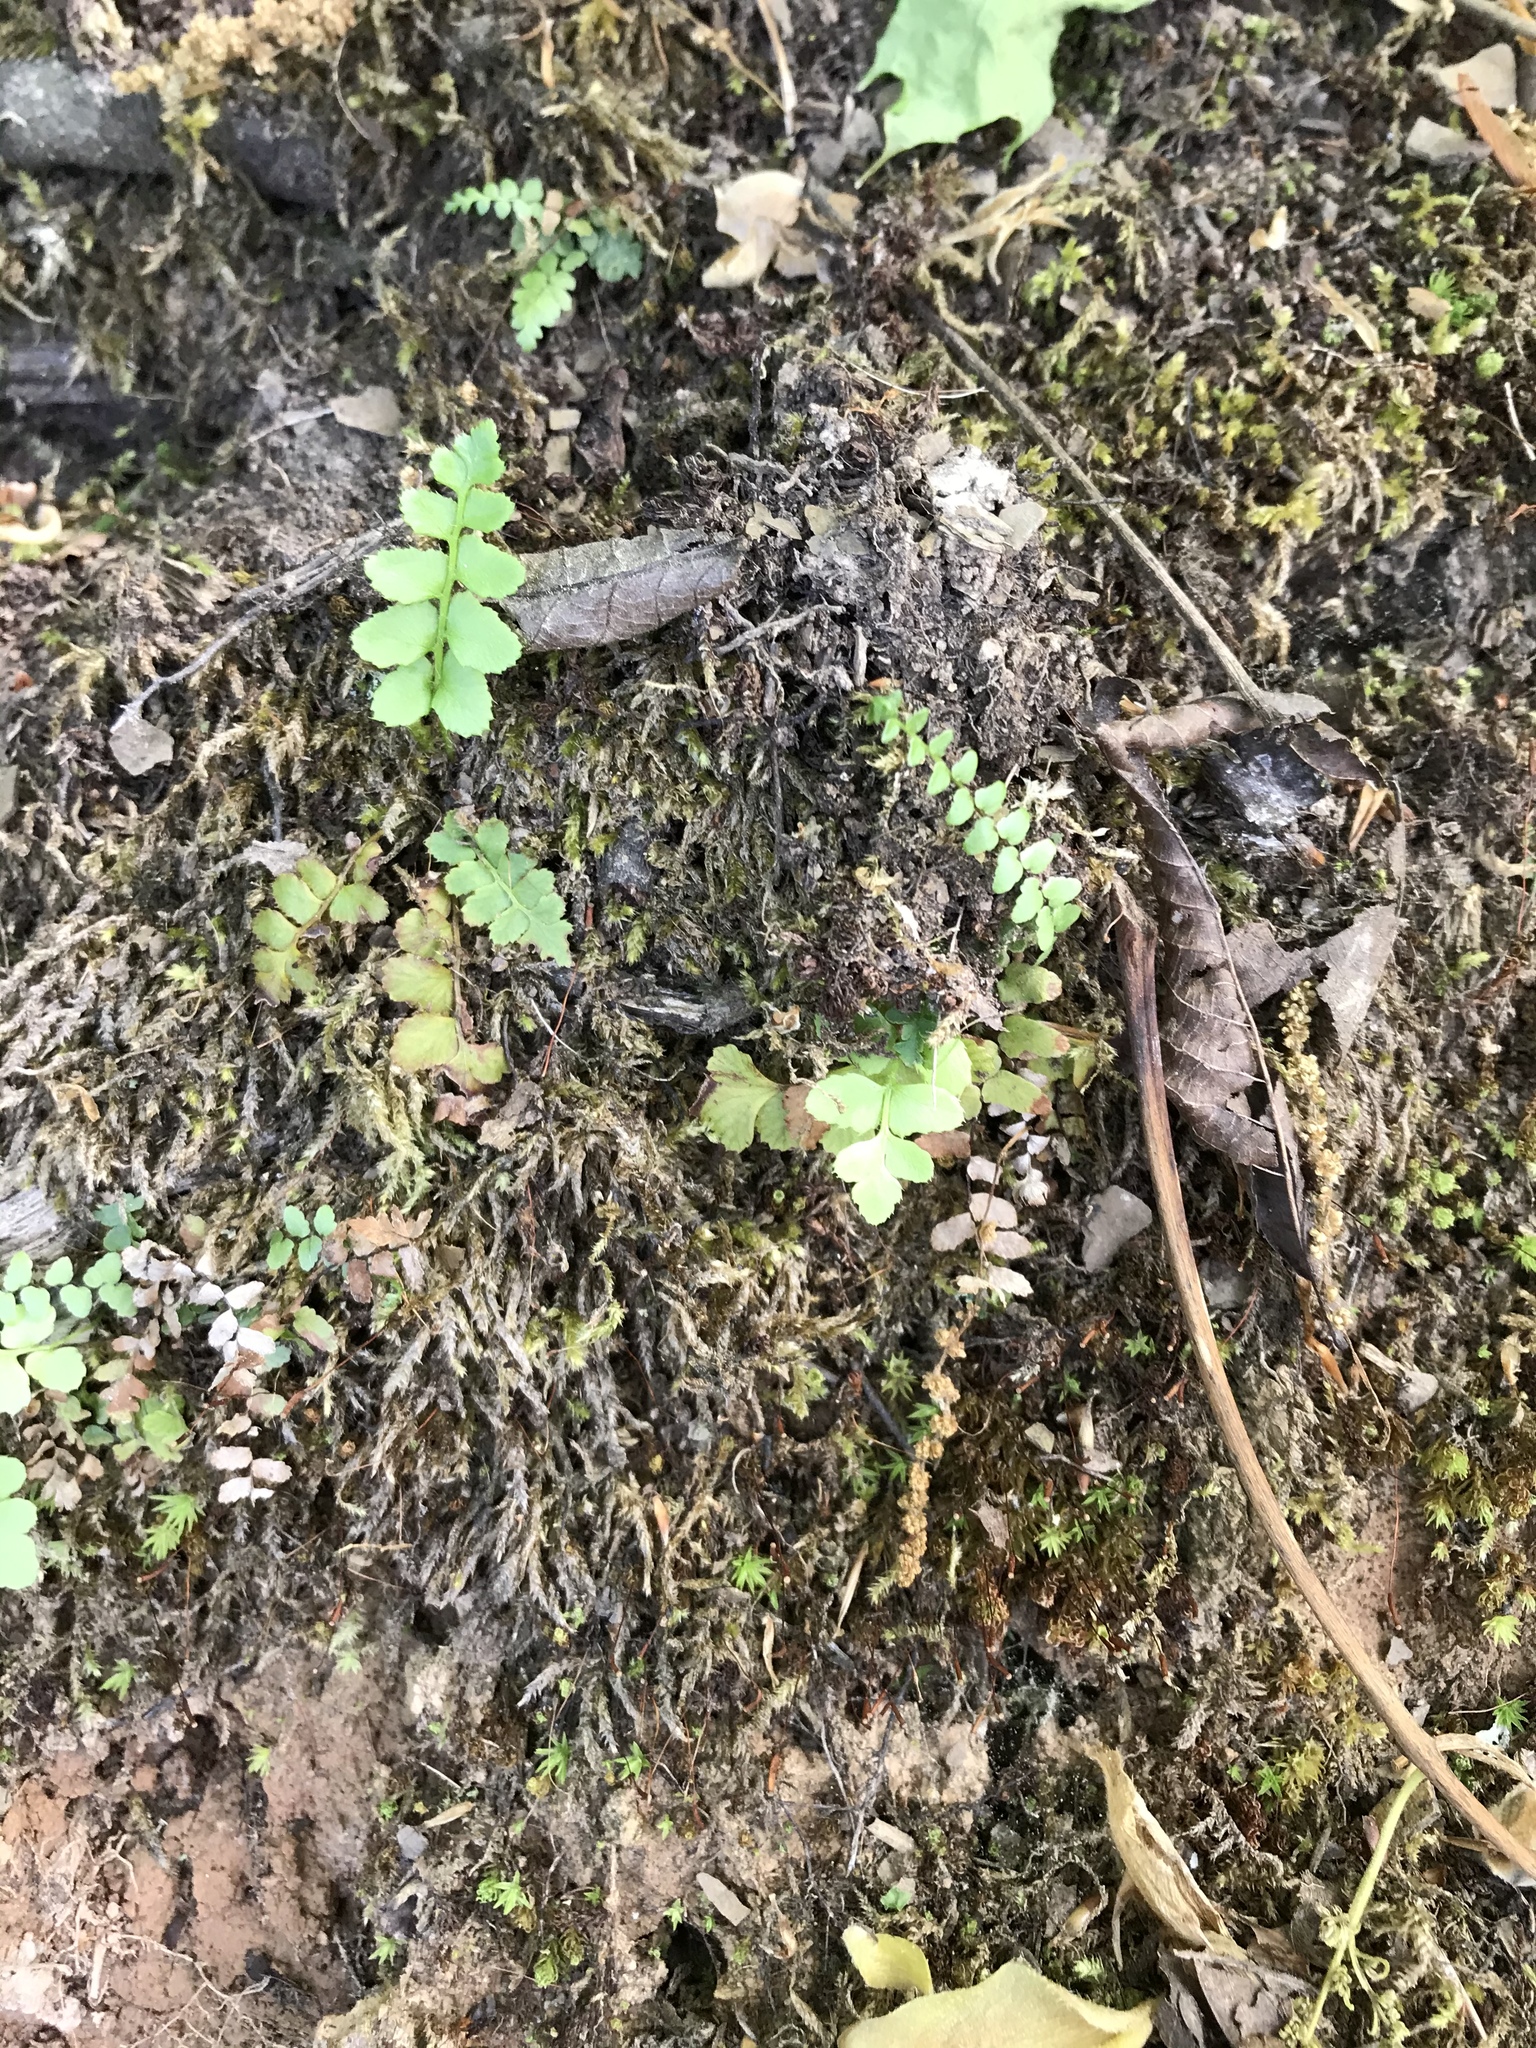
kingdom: Plantae
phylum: Tracheophyta
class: Polypodiopsida
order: Polypodiales
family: Aspleniaceae
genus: Asplenium
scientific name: Asplenium platyneuron
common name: Ebony spleenwort
